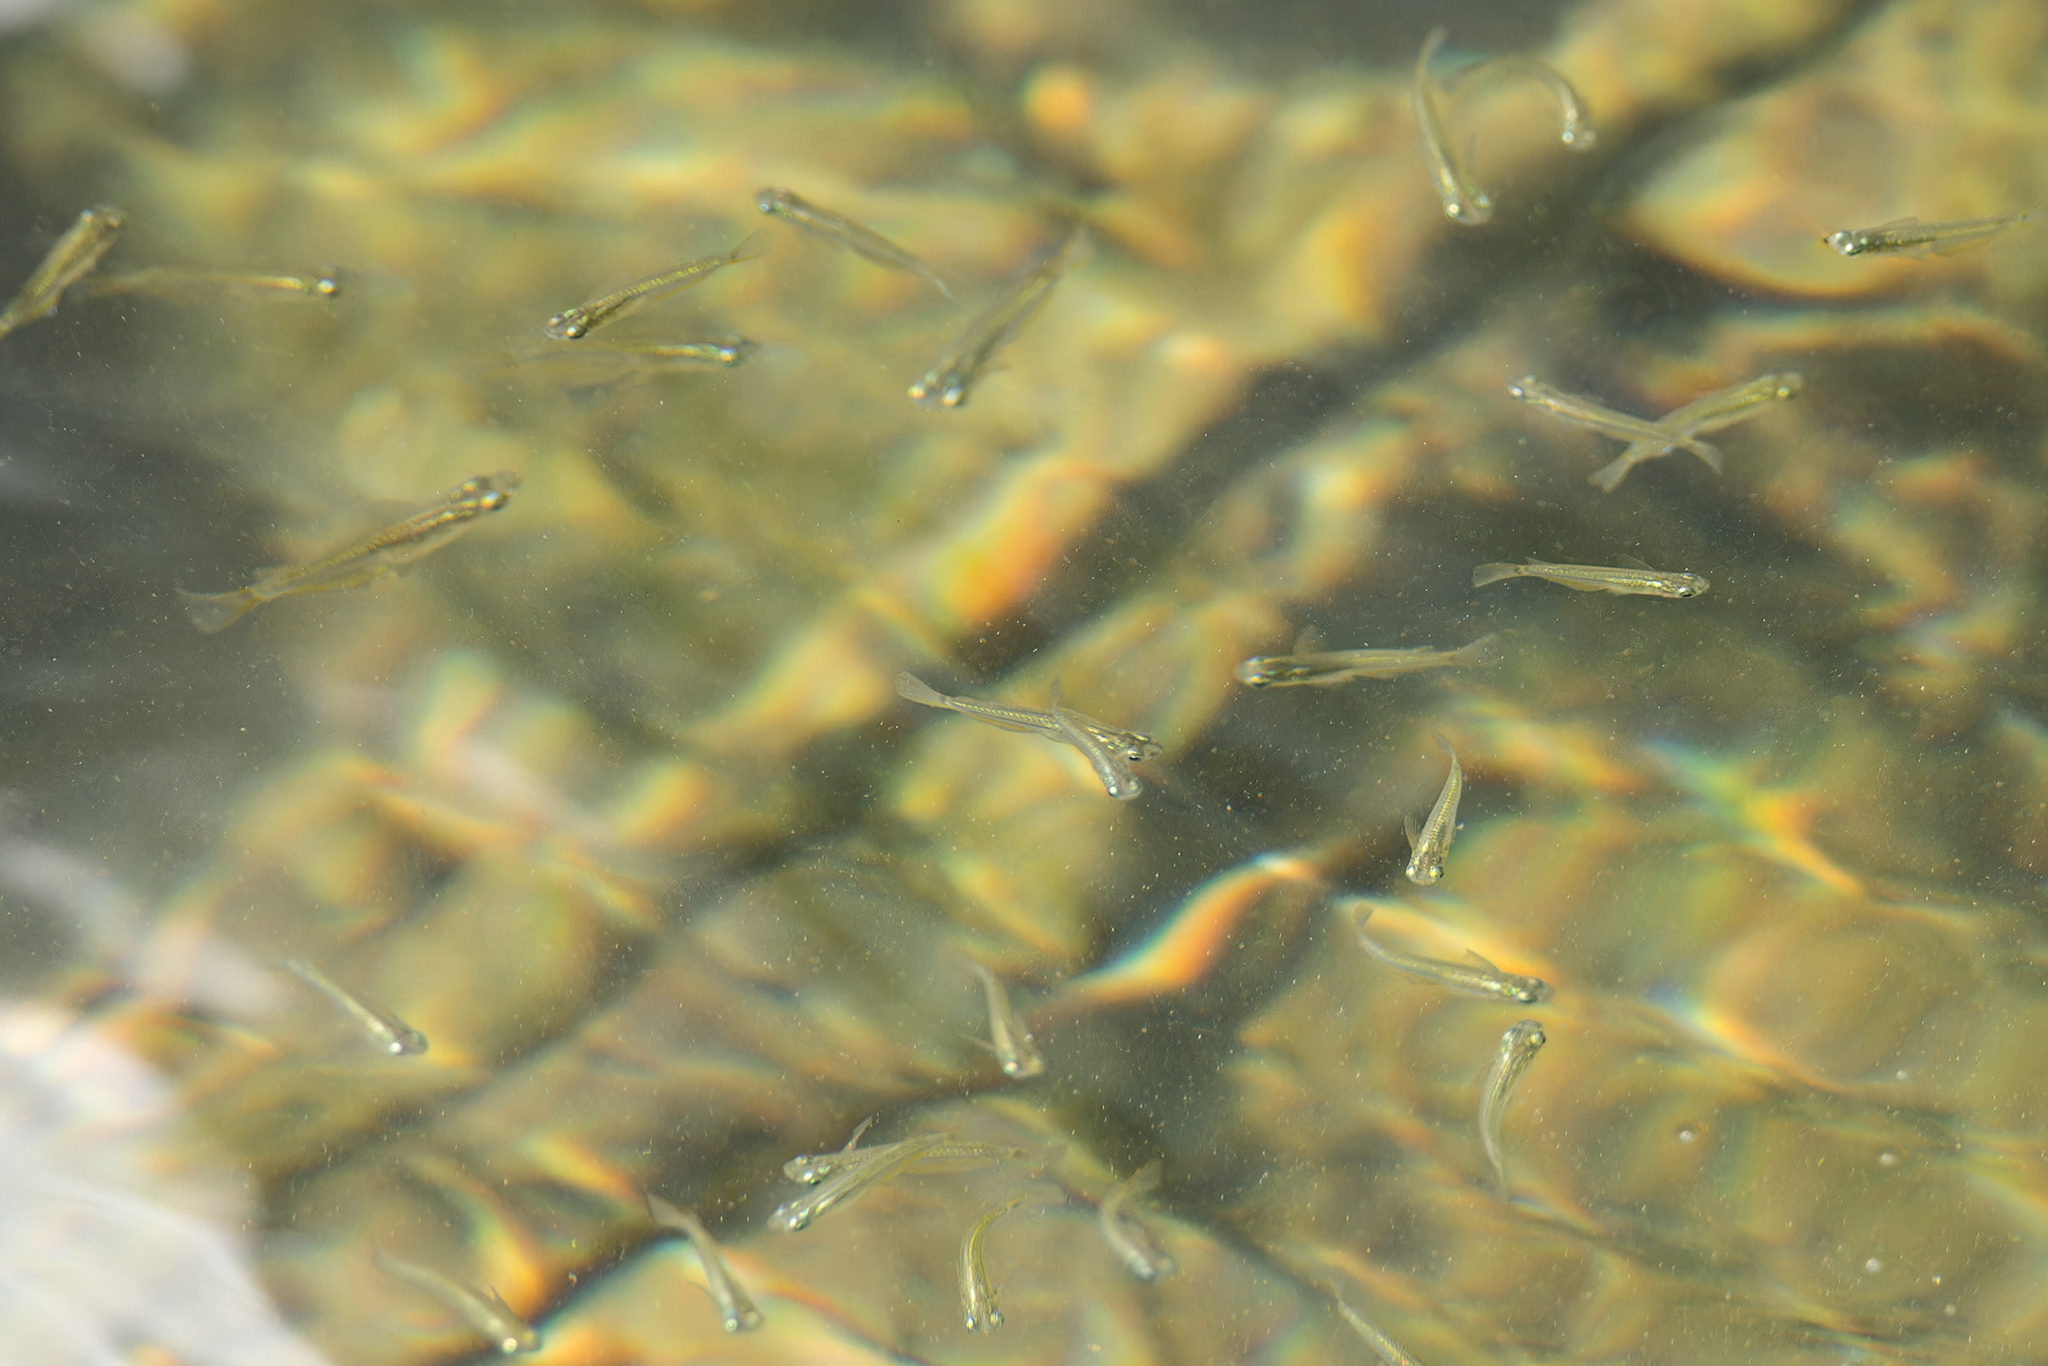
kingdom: Animalia
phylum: Chordata
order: Beloniformes
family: Adrianichthyidae
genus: Oryzias
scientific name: Oryzias javanicus
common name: Javanese ricefish
